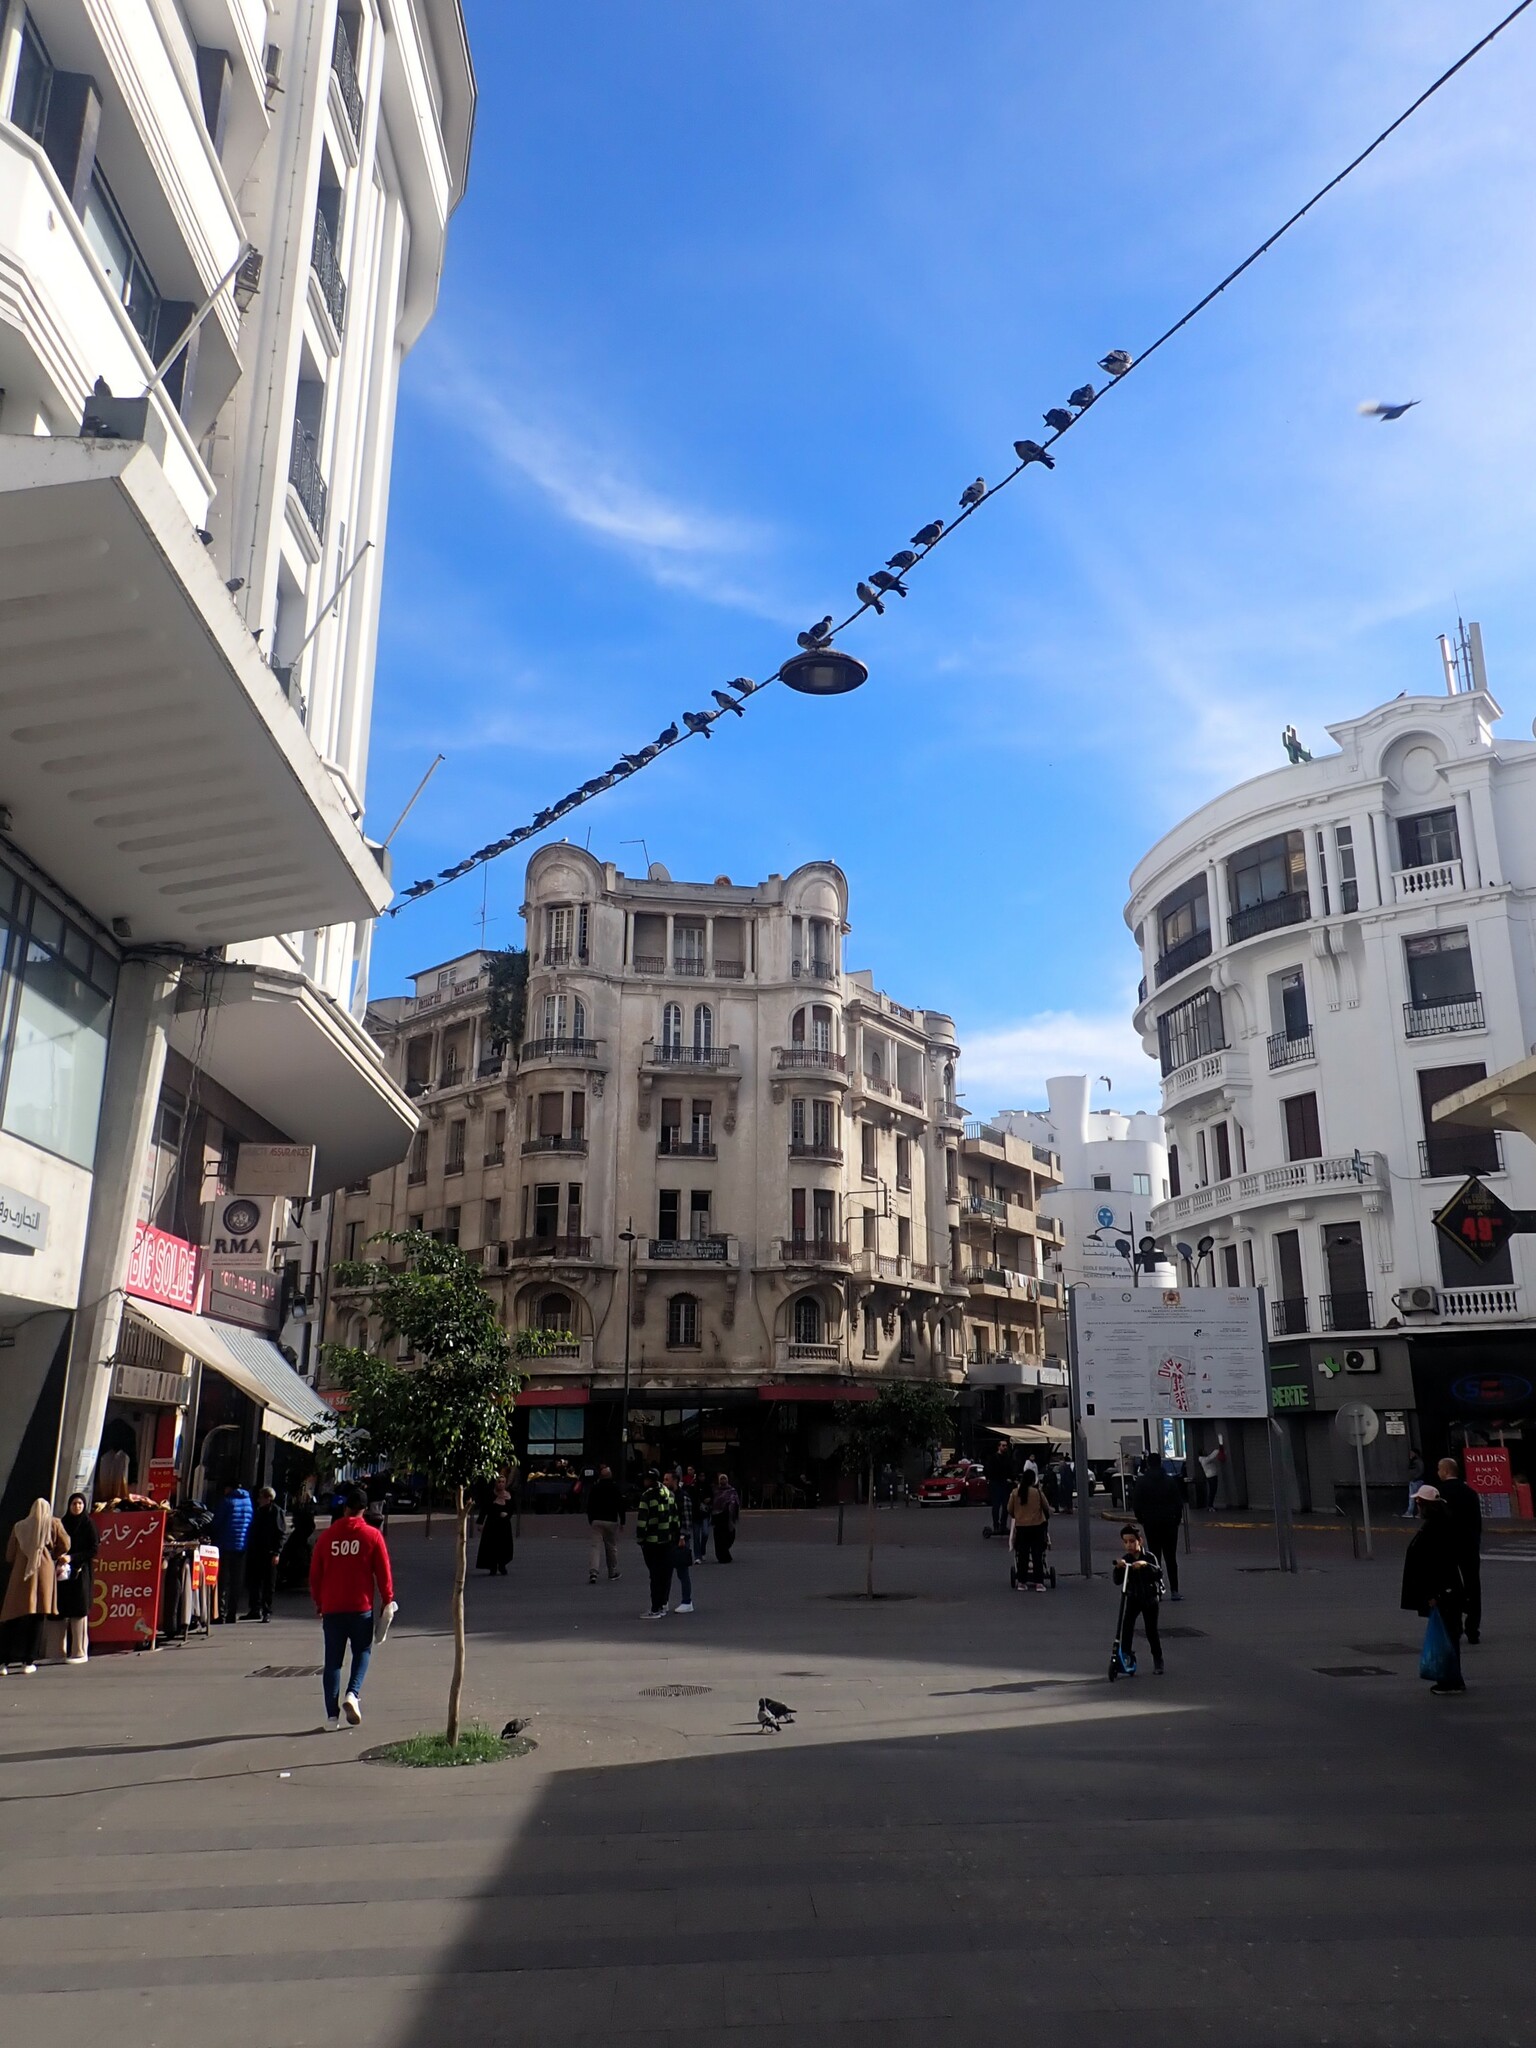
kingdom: Animalia
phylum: Chordata
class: Aves
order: Columbiformes
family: Columbidae
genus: Columba
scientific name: Columba livia
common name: Rock pigeon
